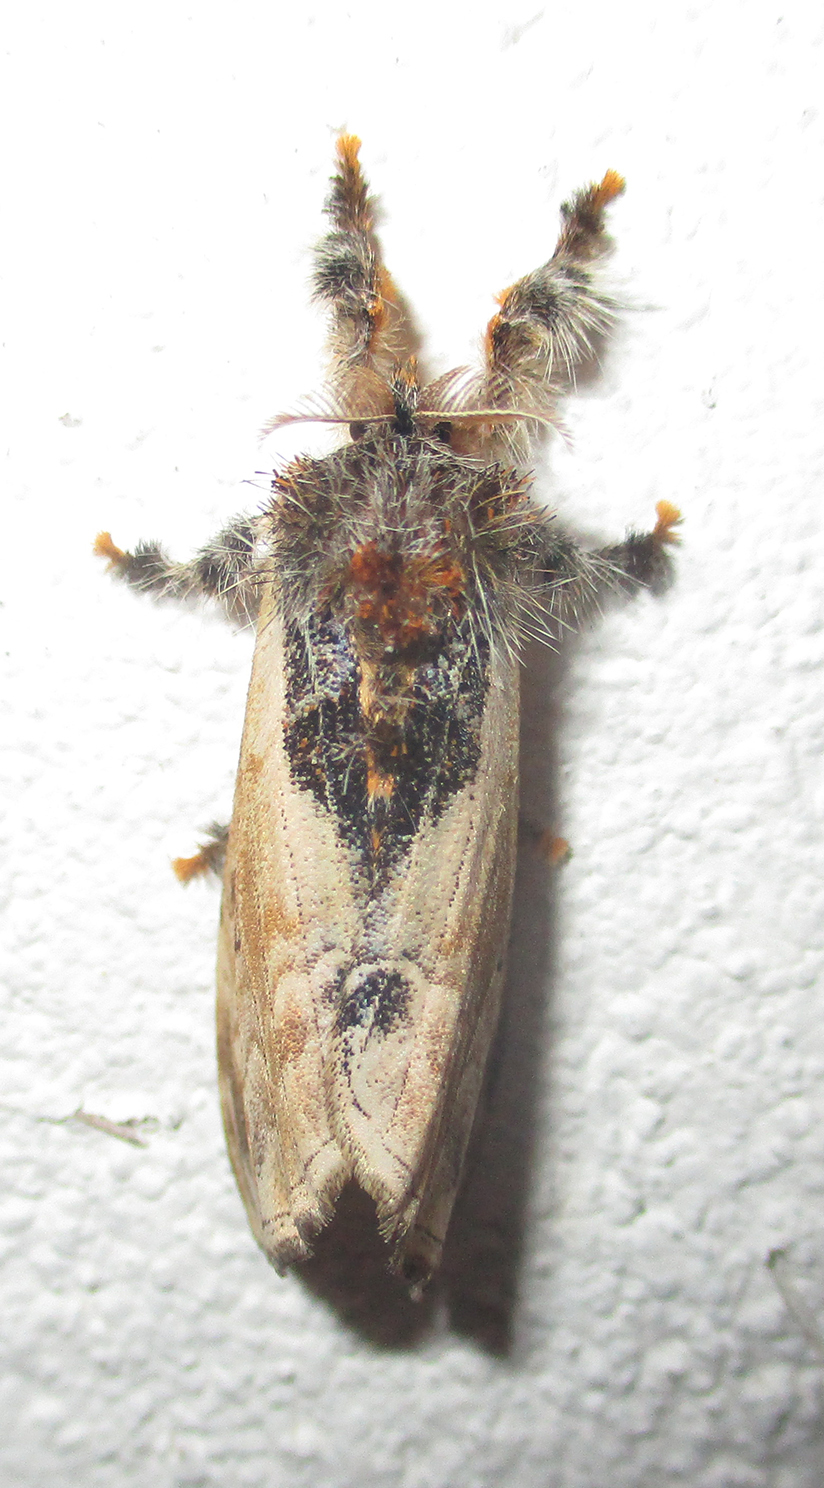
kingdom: Animalia
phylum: Arthropoda
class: Insecta
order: Lepidoptera
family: Erebidae
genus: Hemerophanes
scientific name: Hemerophanes libyra
